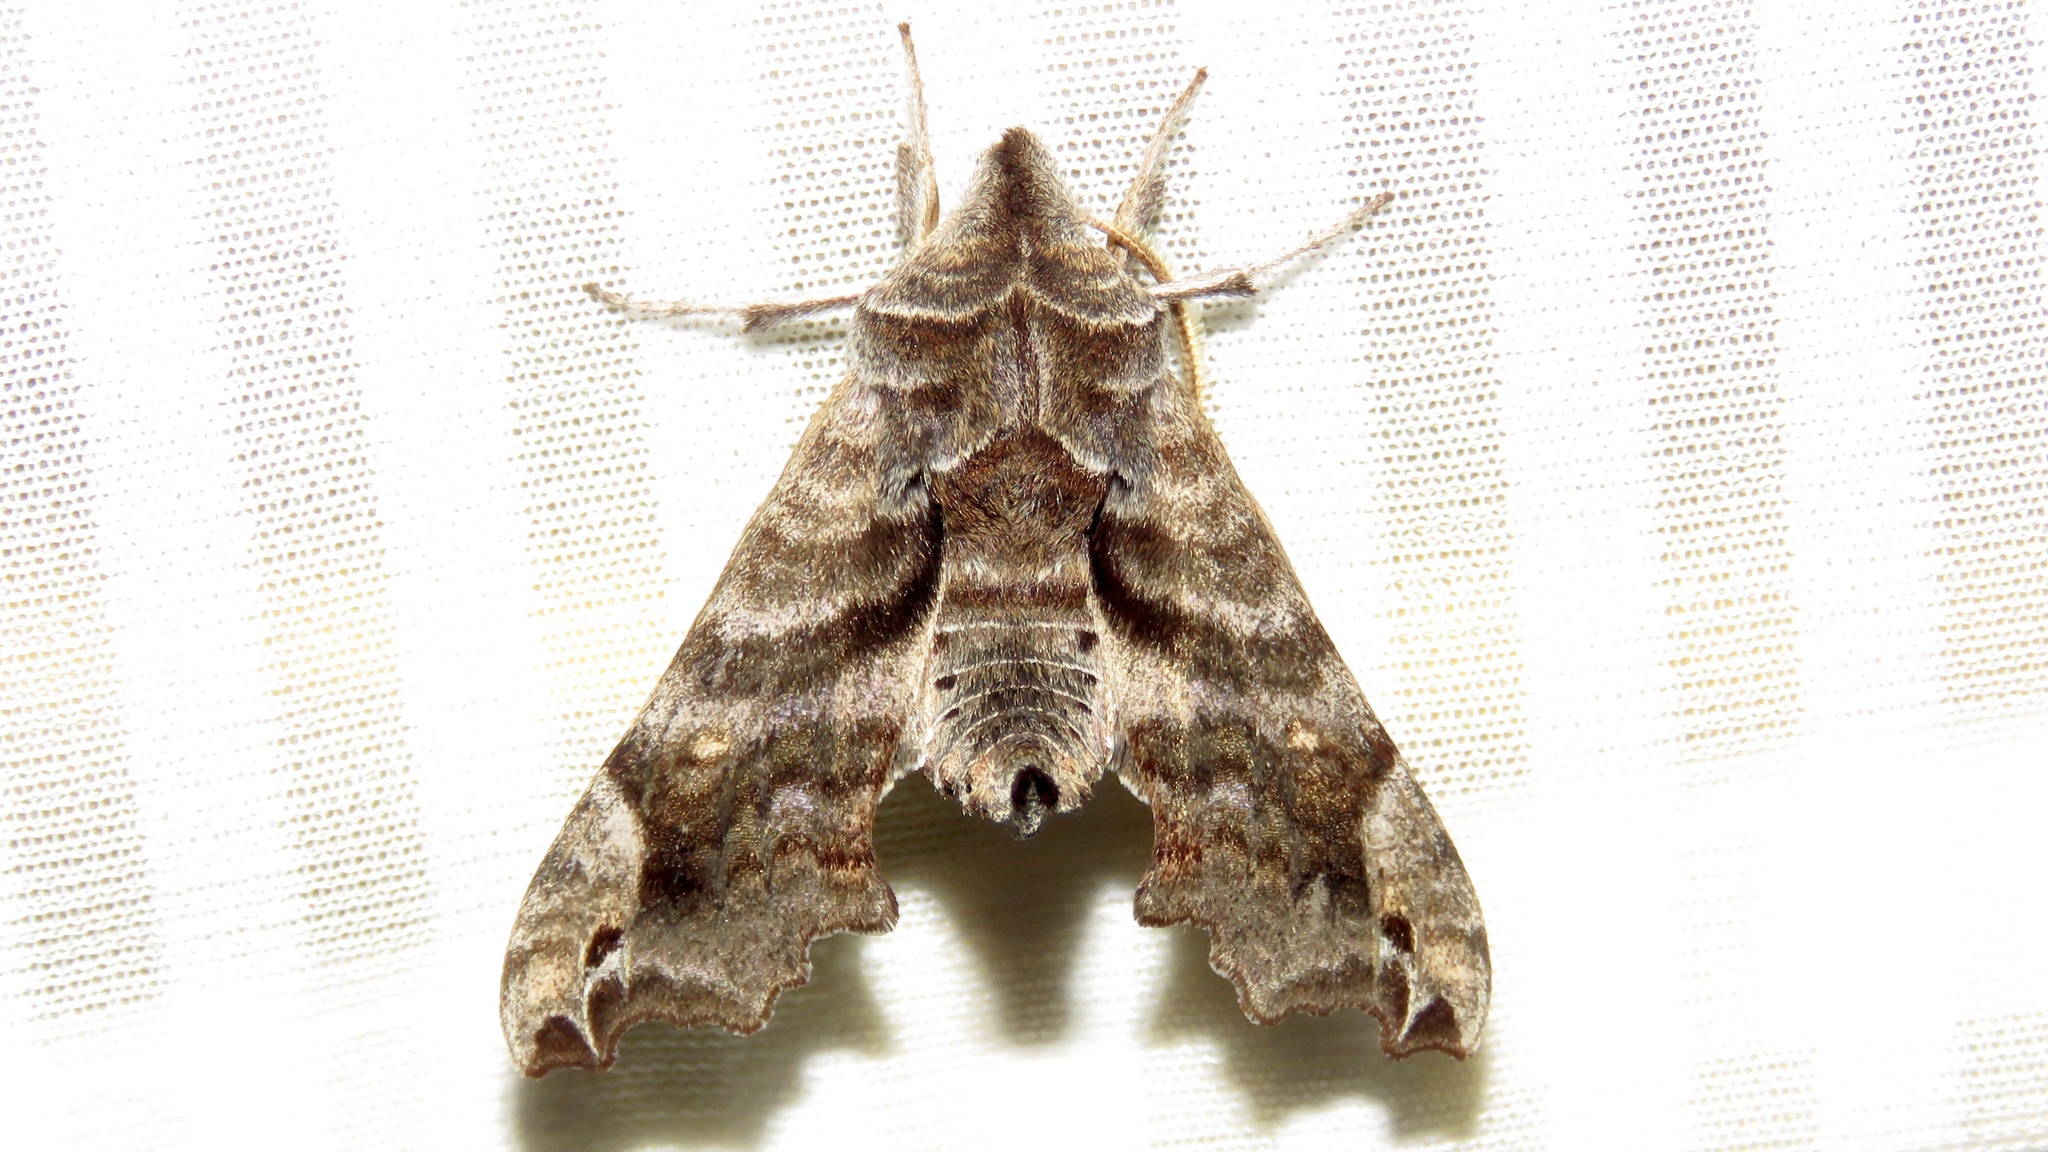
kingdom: Animalia
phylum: Arthropoda
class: Insecta
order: Lepidoptera
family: Sphingidae
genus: Deidamia
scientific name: Deidamia inscriptum
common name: Lettered sphinx
